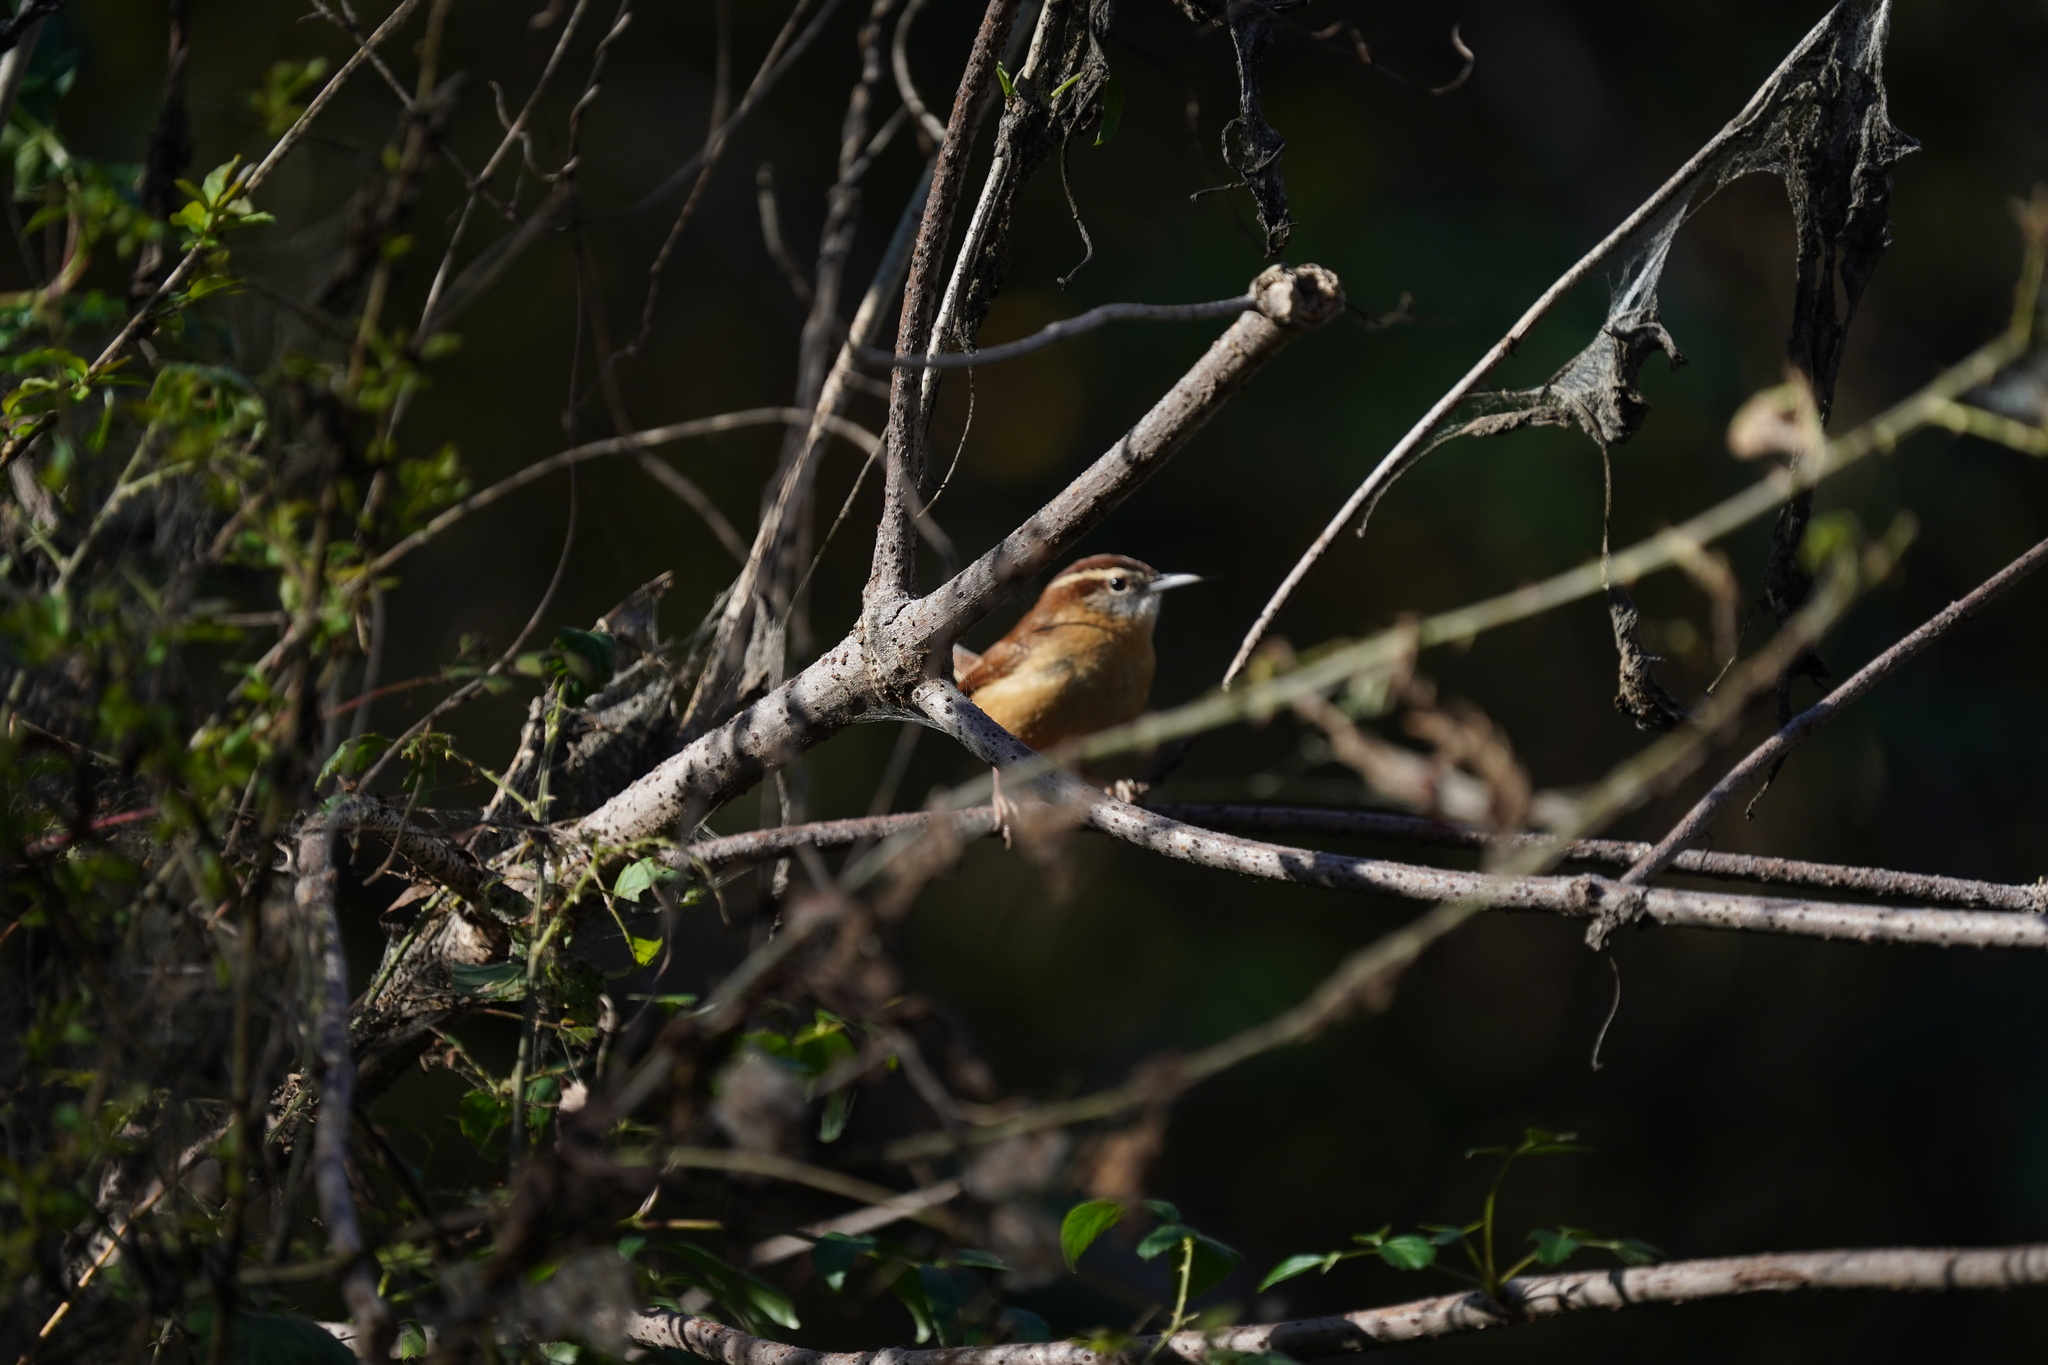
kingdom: Animalia
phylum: Chordata
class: Aves
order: Passeriformes
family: Troglodytidae
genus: Thryothorus
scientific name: Thryothorus ludovicianus
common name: Carolina wren
